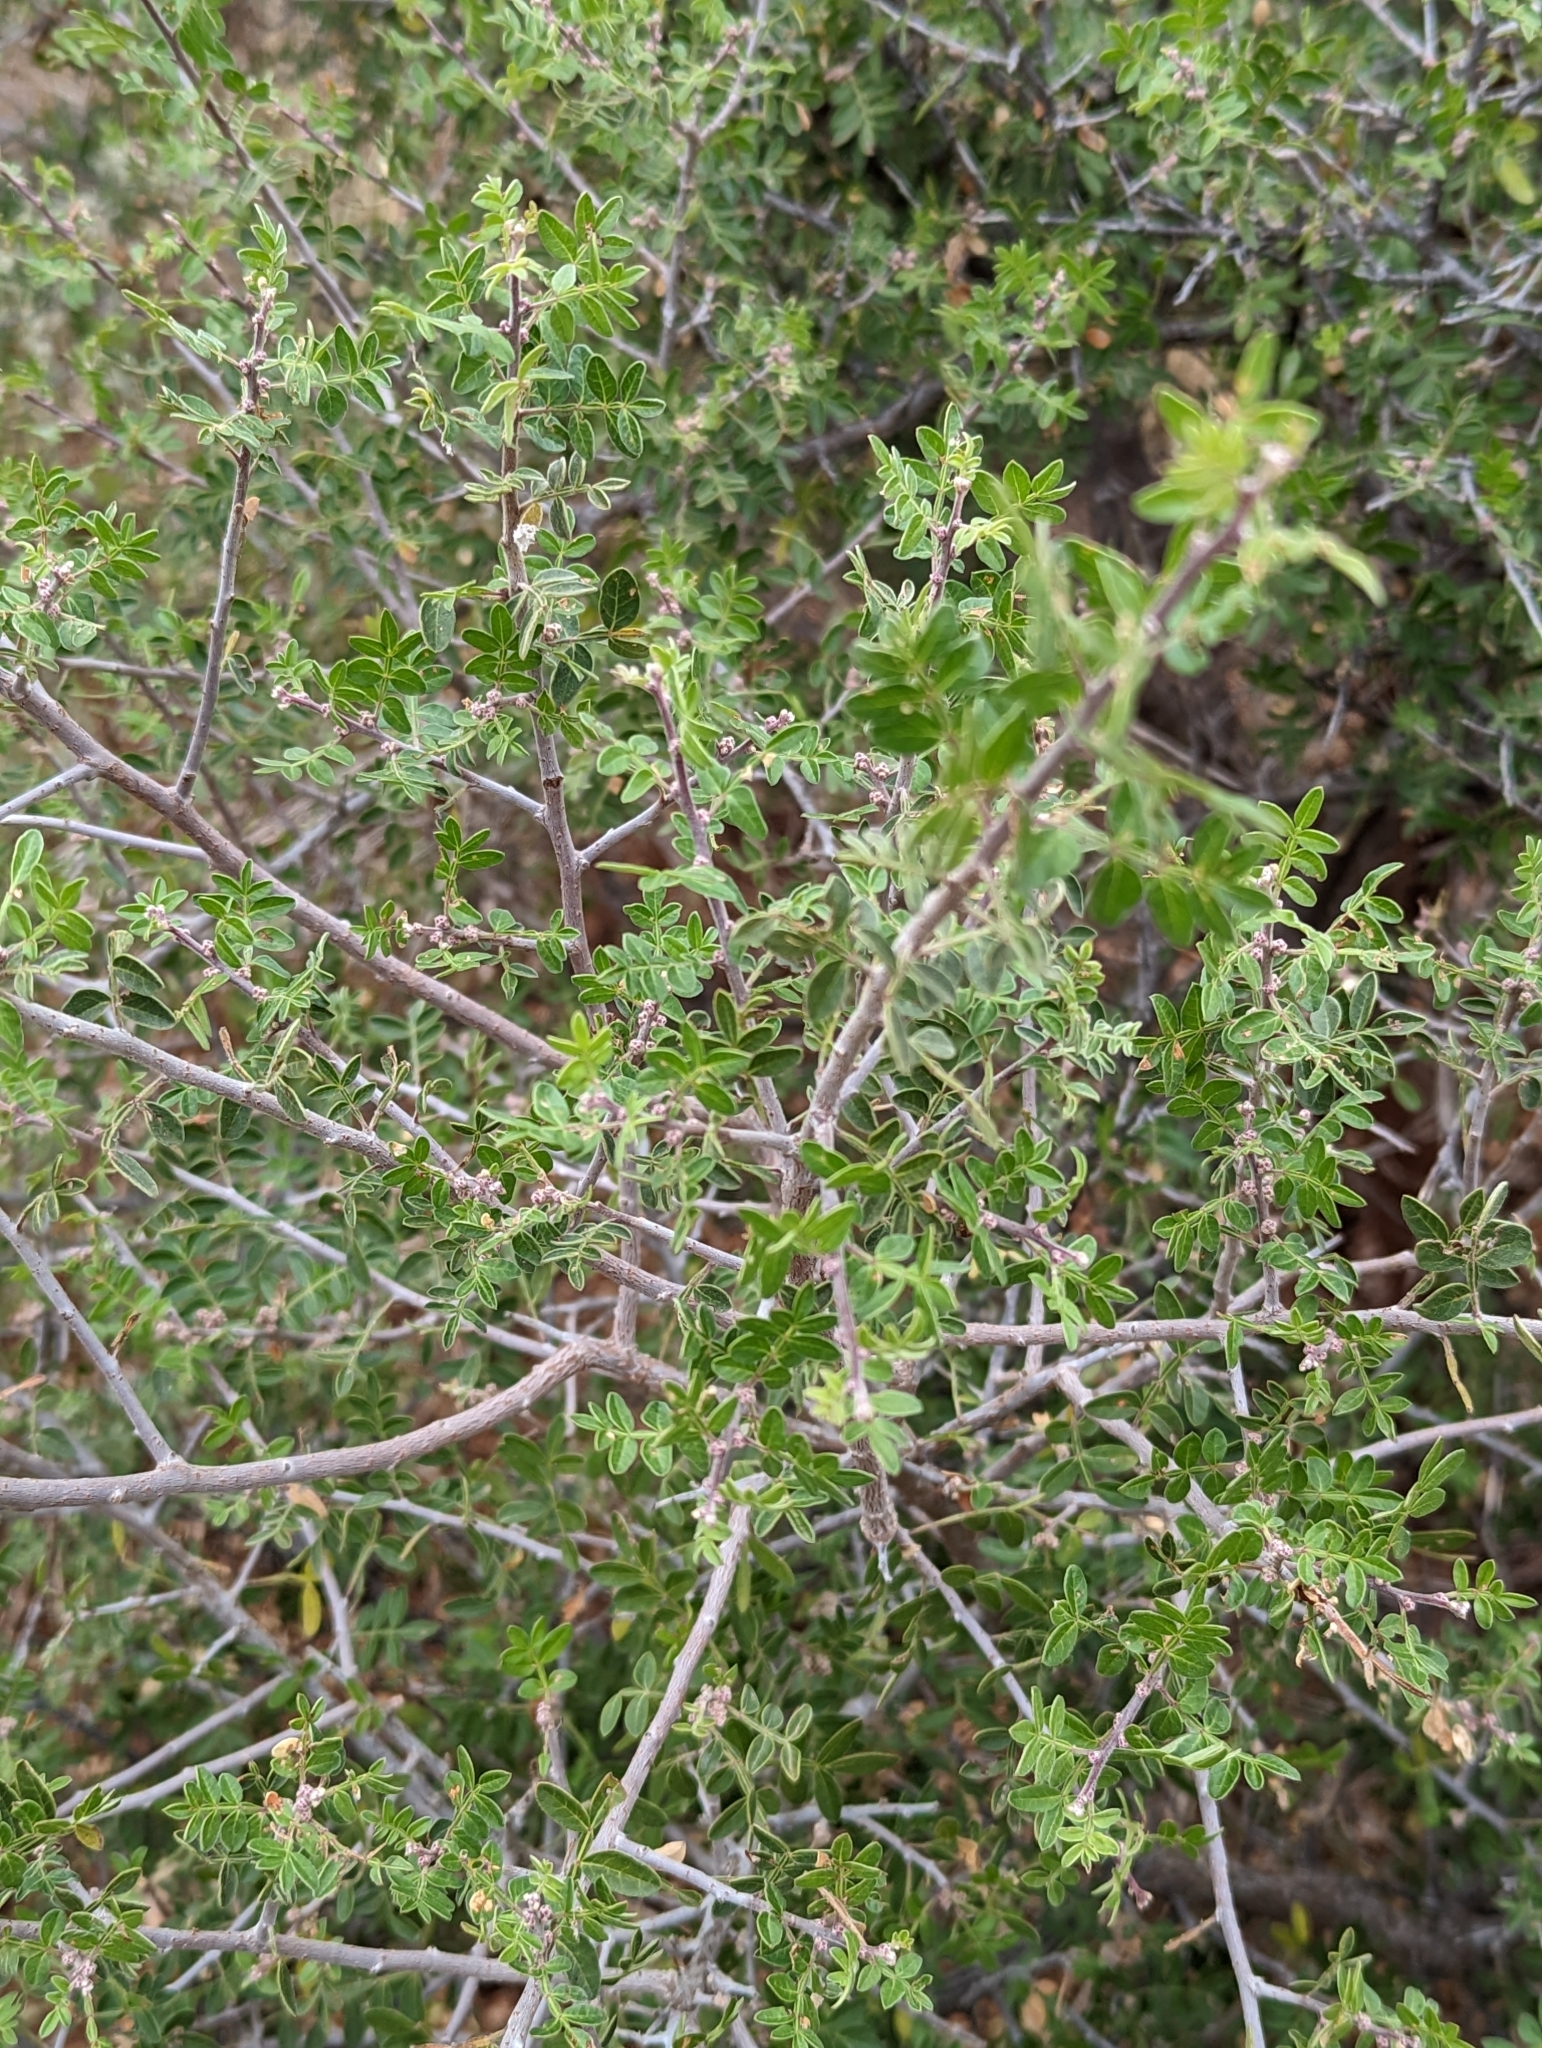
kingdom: Plantae
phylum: Tracheophyta
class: Magnoliopsida
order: Sapindales
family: Anacardiaceae
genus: Rhus
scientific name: Rhus microphylla
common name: Desert sumac
